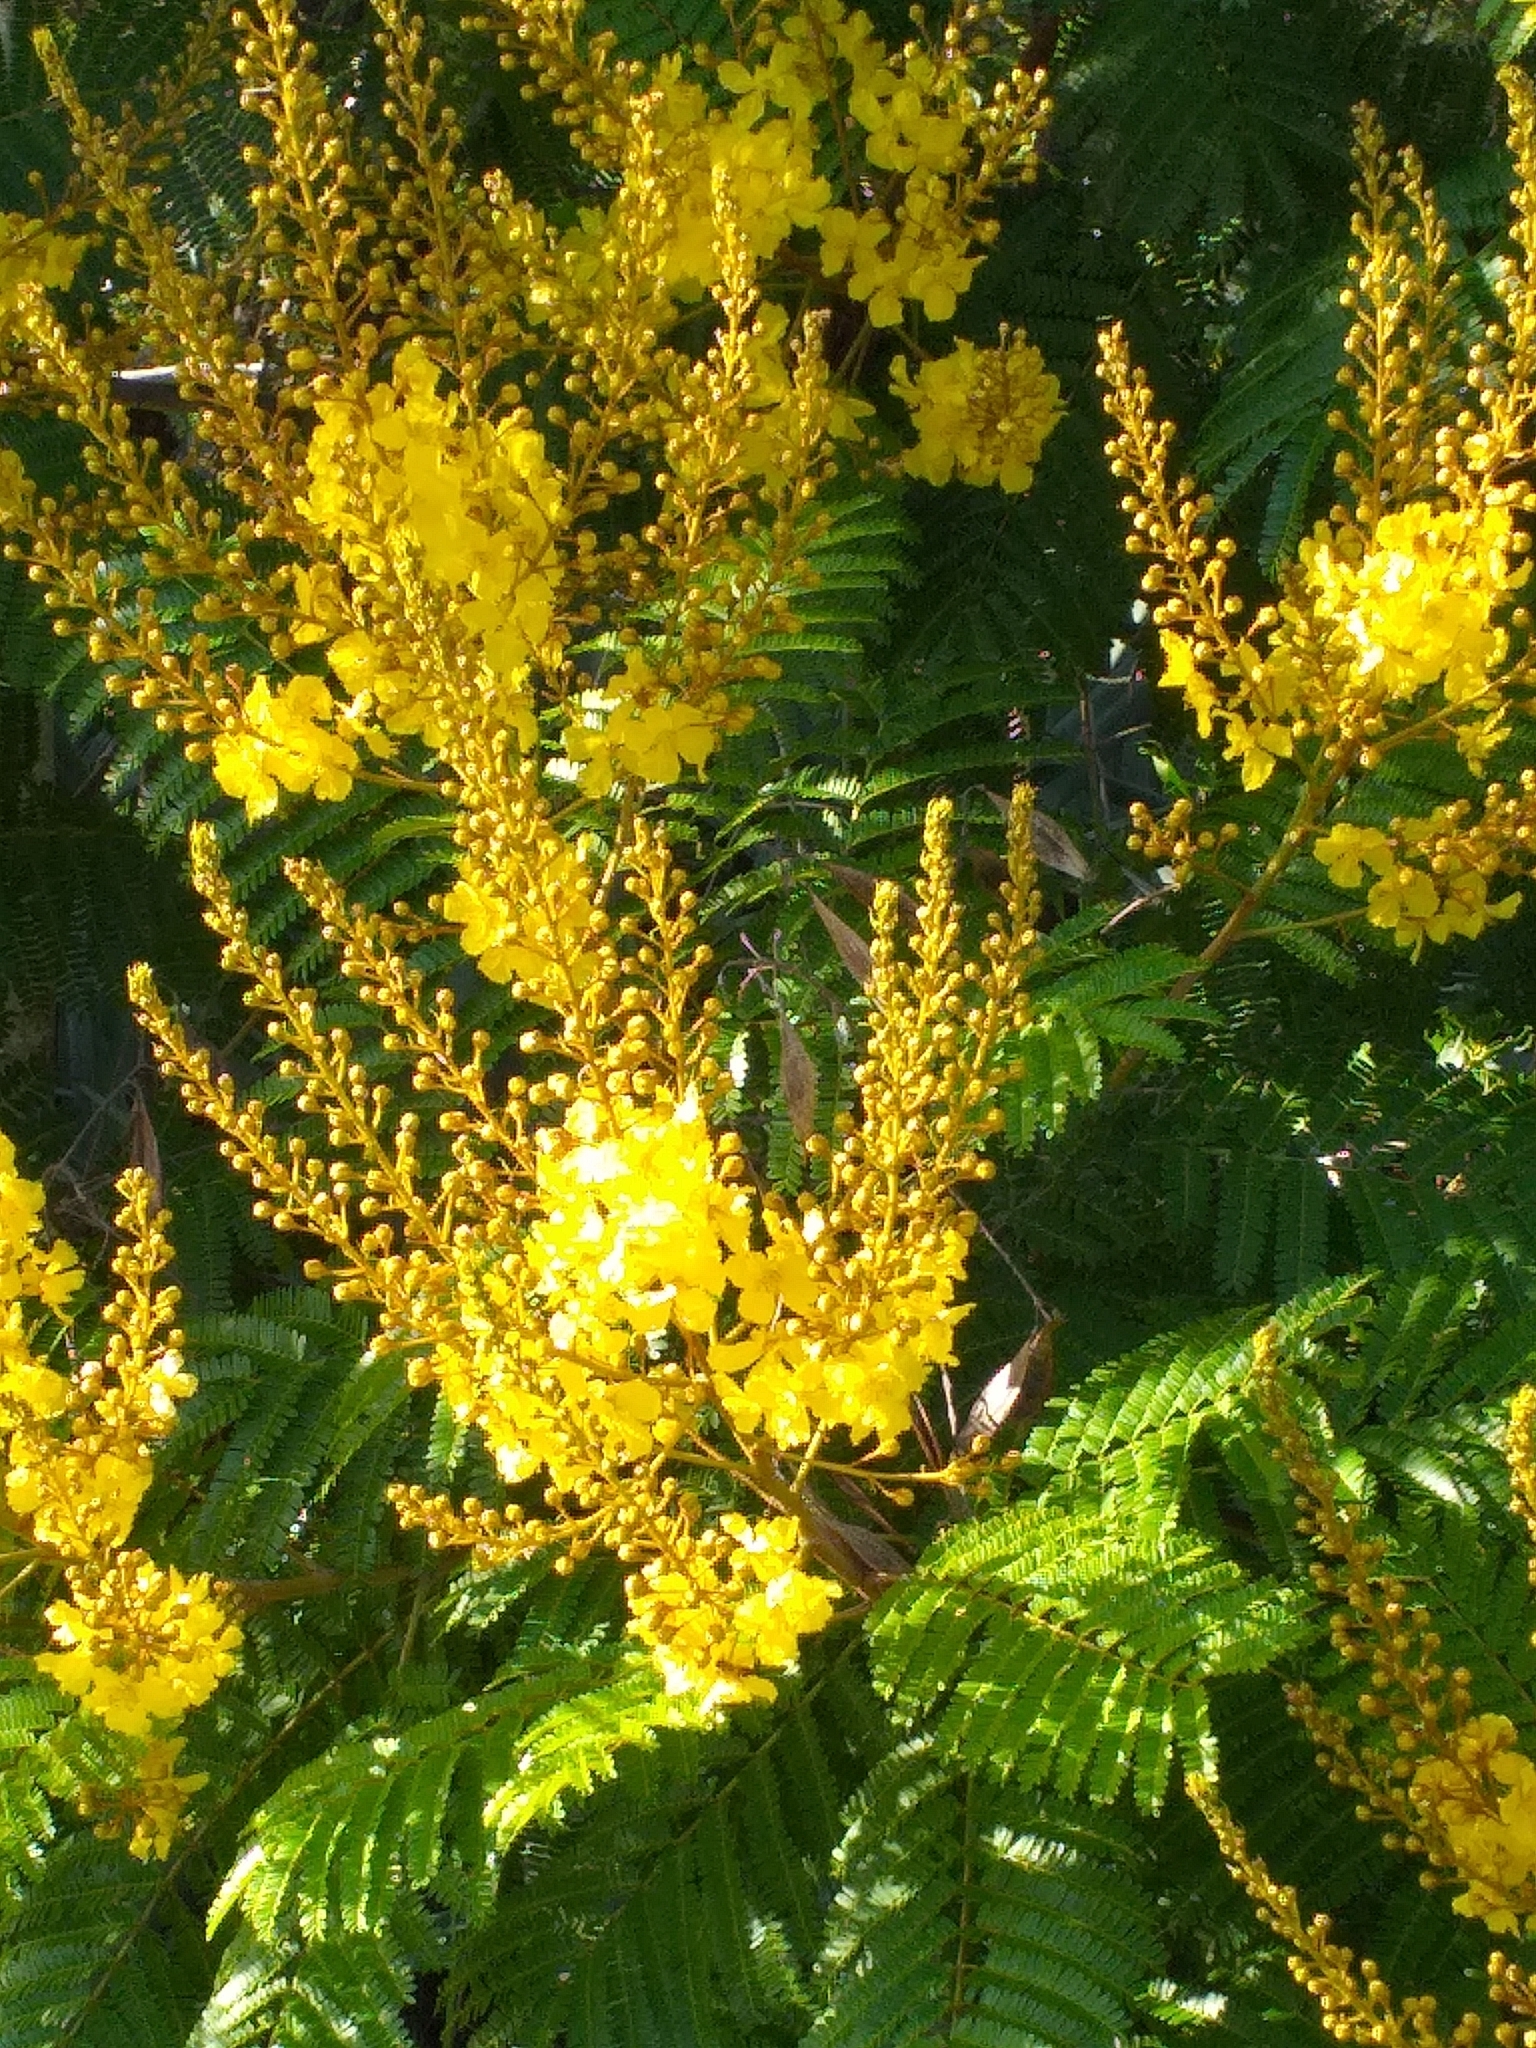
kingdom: Plantae
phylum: Tracheophyta
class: Magnoliopsida
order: Fabales
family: Fabaceae
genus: Peltophorum
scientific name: Peltophorum dubium
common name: Horsebush
